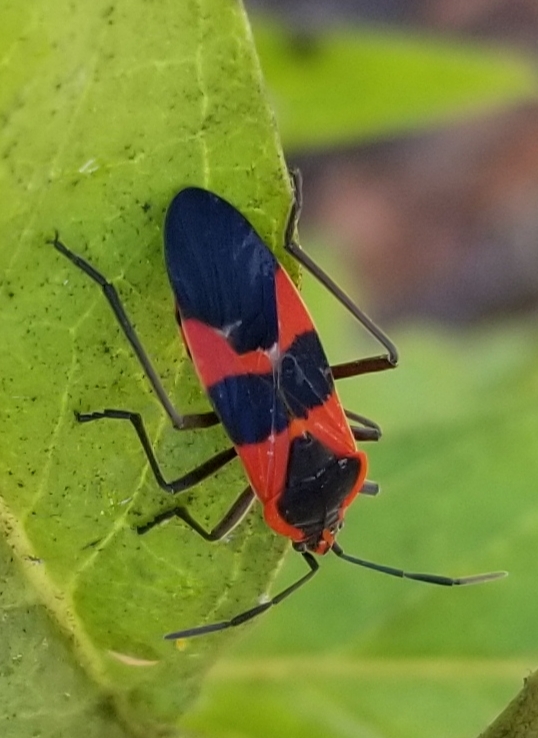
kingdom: Animalia
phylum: Arthropoda
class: Insecta
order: Hemiptera
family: Lygaeidae
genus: Oncopeltus
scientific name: Oncopeltus fasciatus
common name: Large milkweed bug
